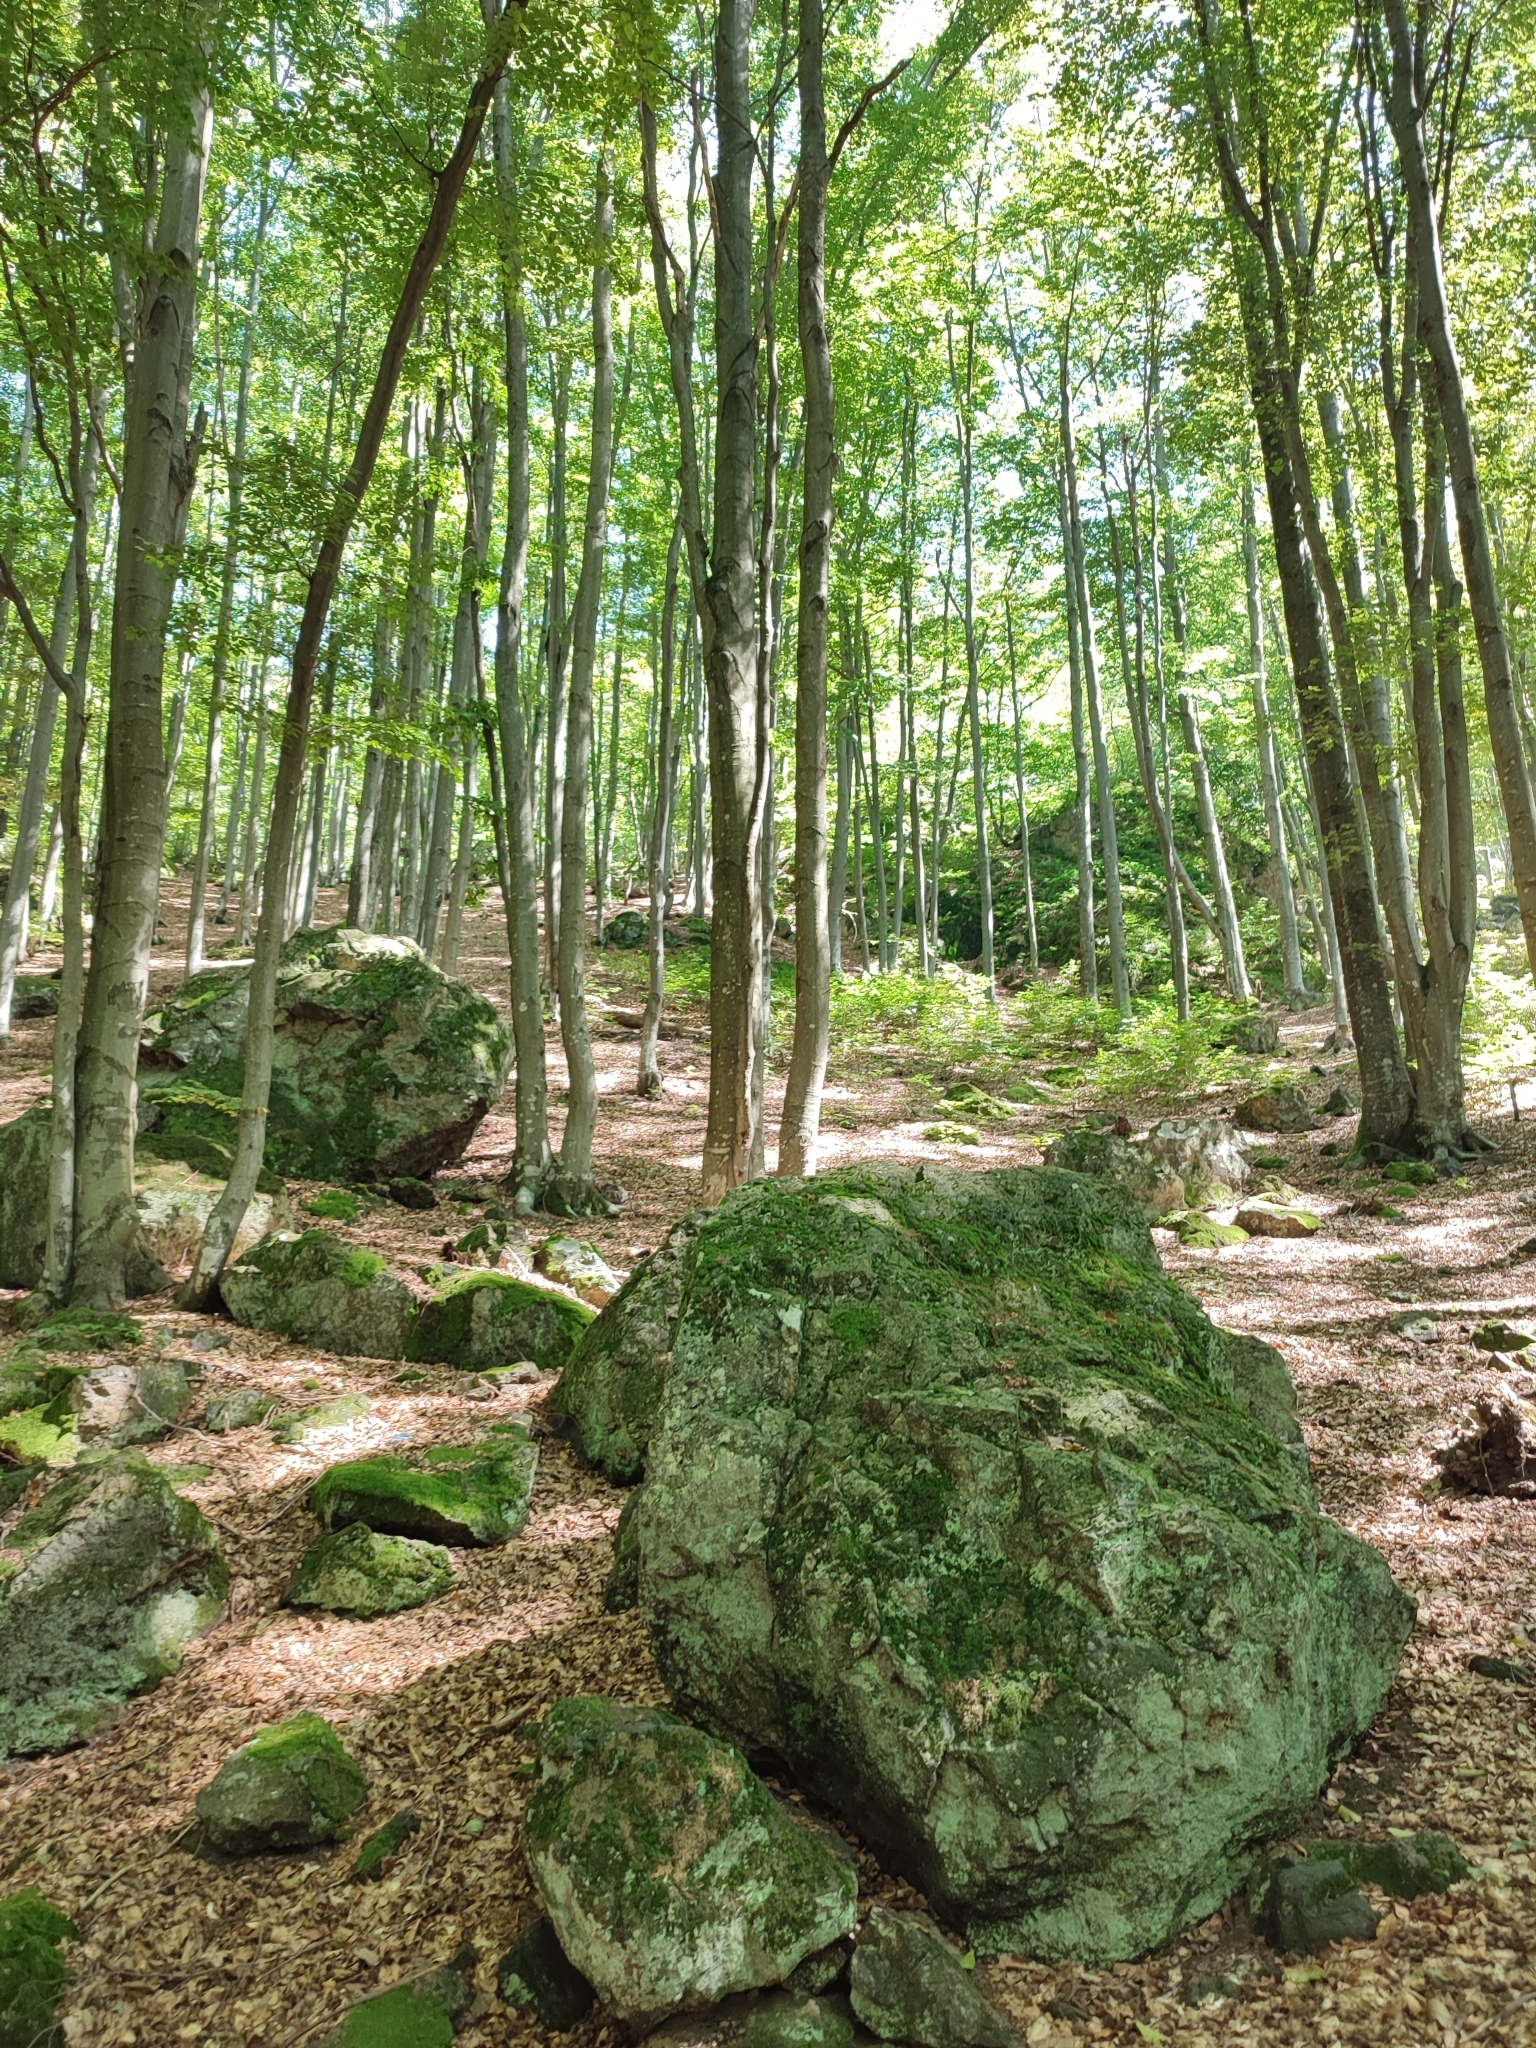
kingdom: Plantae
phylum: Tracheophyta
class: Magnoliopsida
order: Fagales
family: Fagaceae
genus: Fagus
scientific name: Fagus sylvatica
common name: Beech
